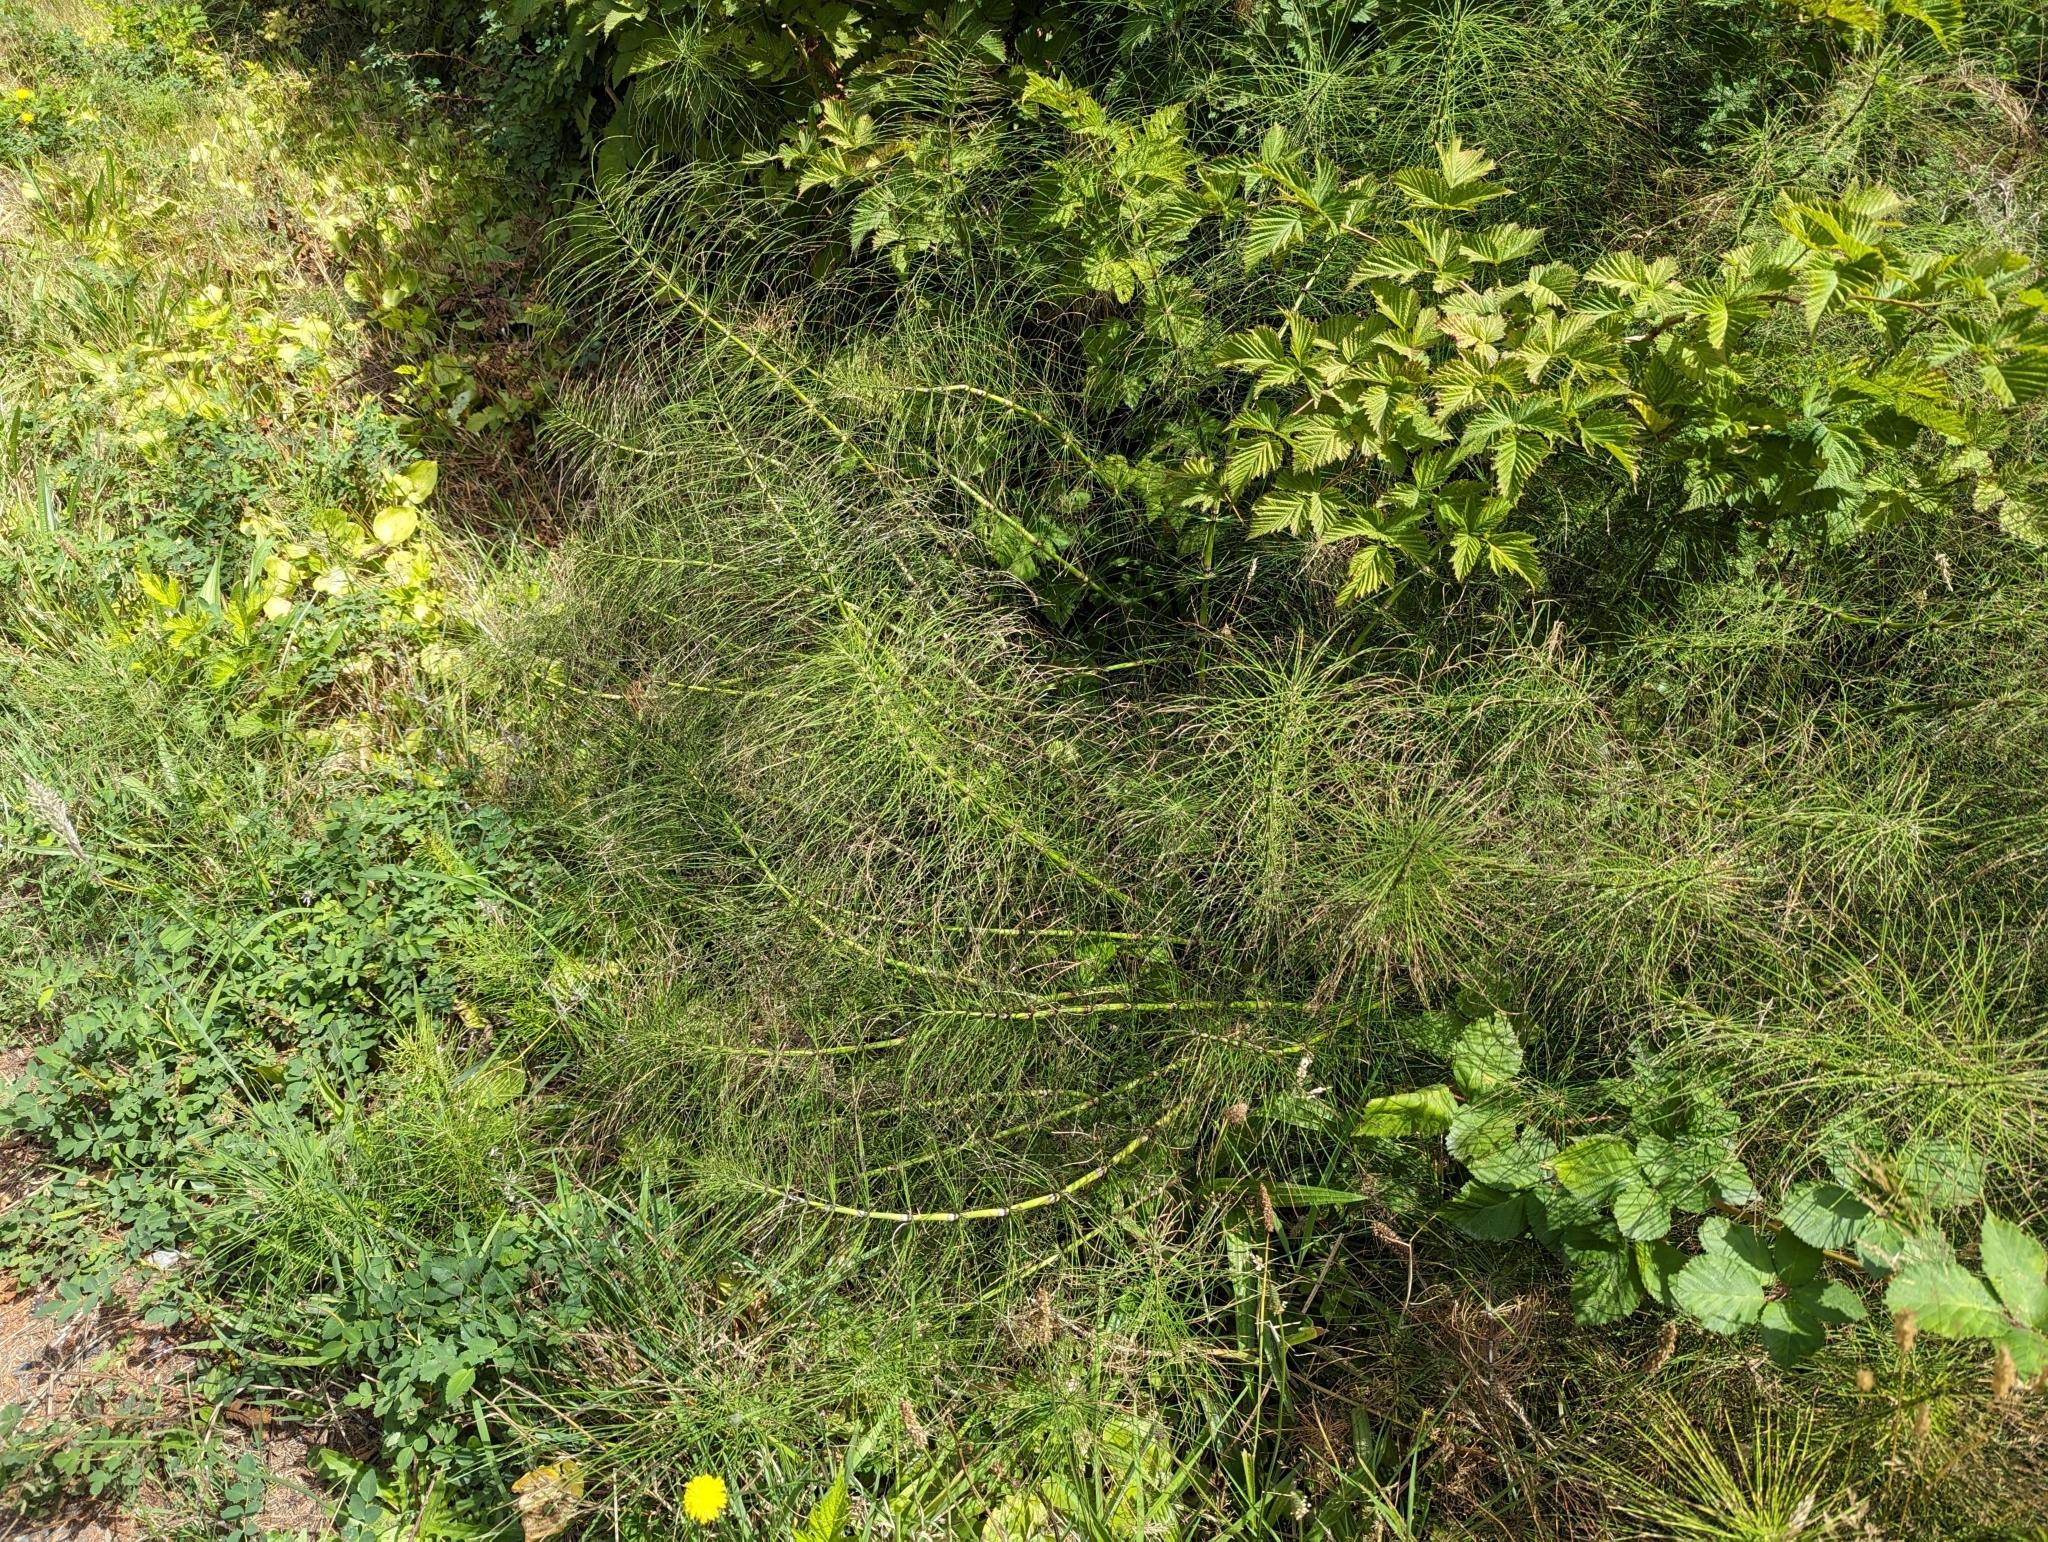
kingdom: Plantae
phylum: Tracheophyta
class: Polypodiopsida
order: Equisetales
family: Equisetaceae
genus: Equisetum
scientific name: Equisetum braunii
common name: Braun's horsetail
